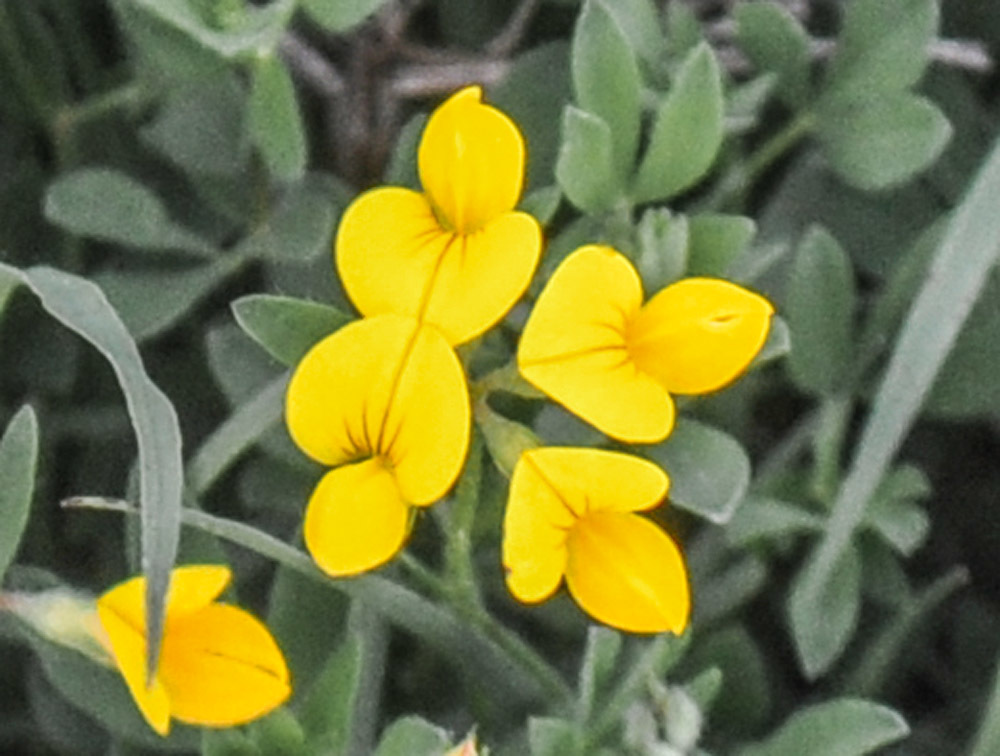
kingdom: Plantae
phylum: Tracheophyta
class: Magnoliopsida
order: Fabales
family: Fabaceae
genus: Lotus
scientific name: Lotus corniculatus
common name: Common bird's-foot-trefoil
